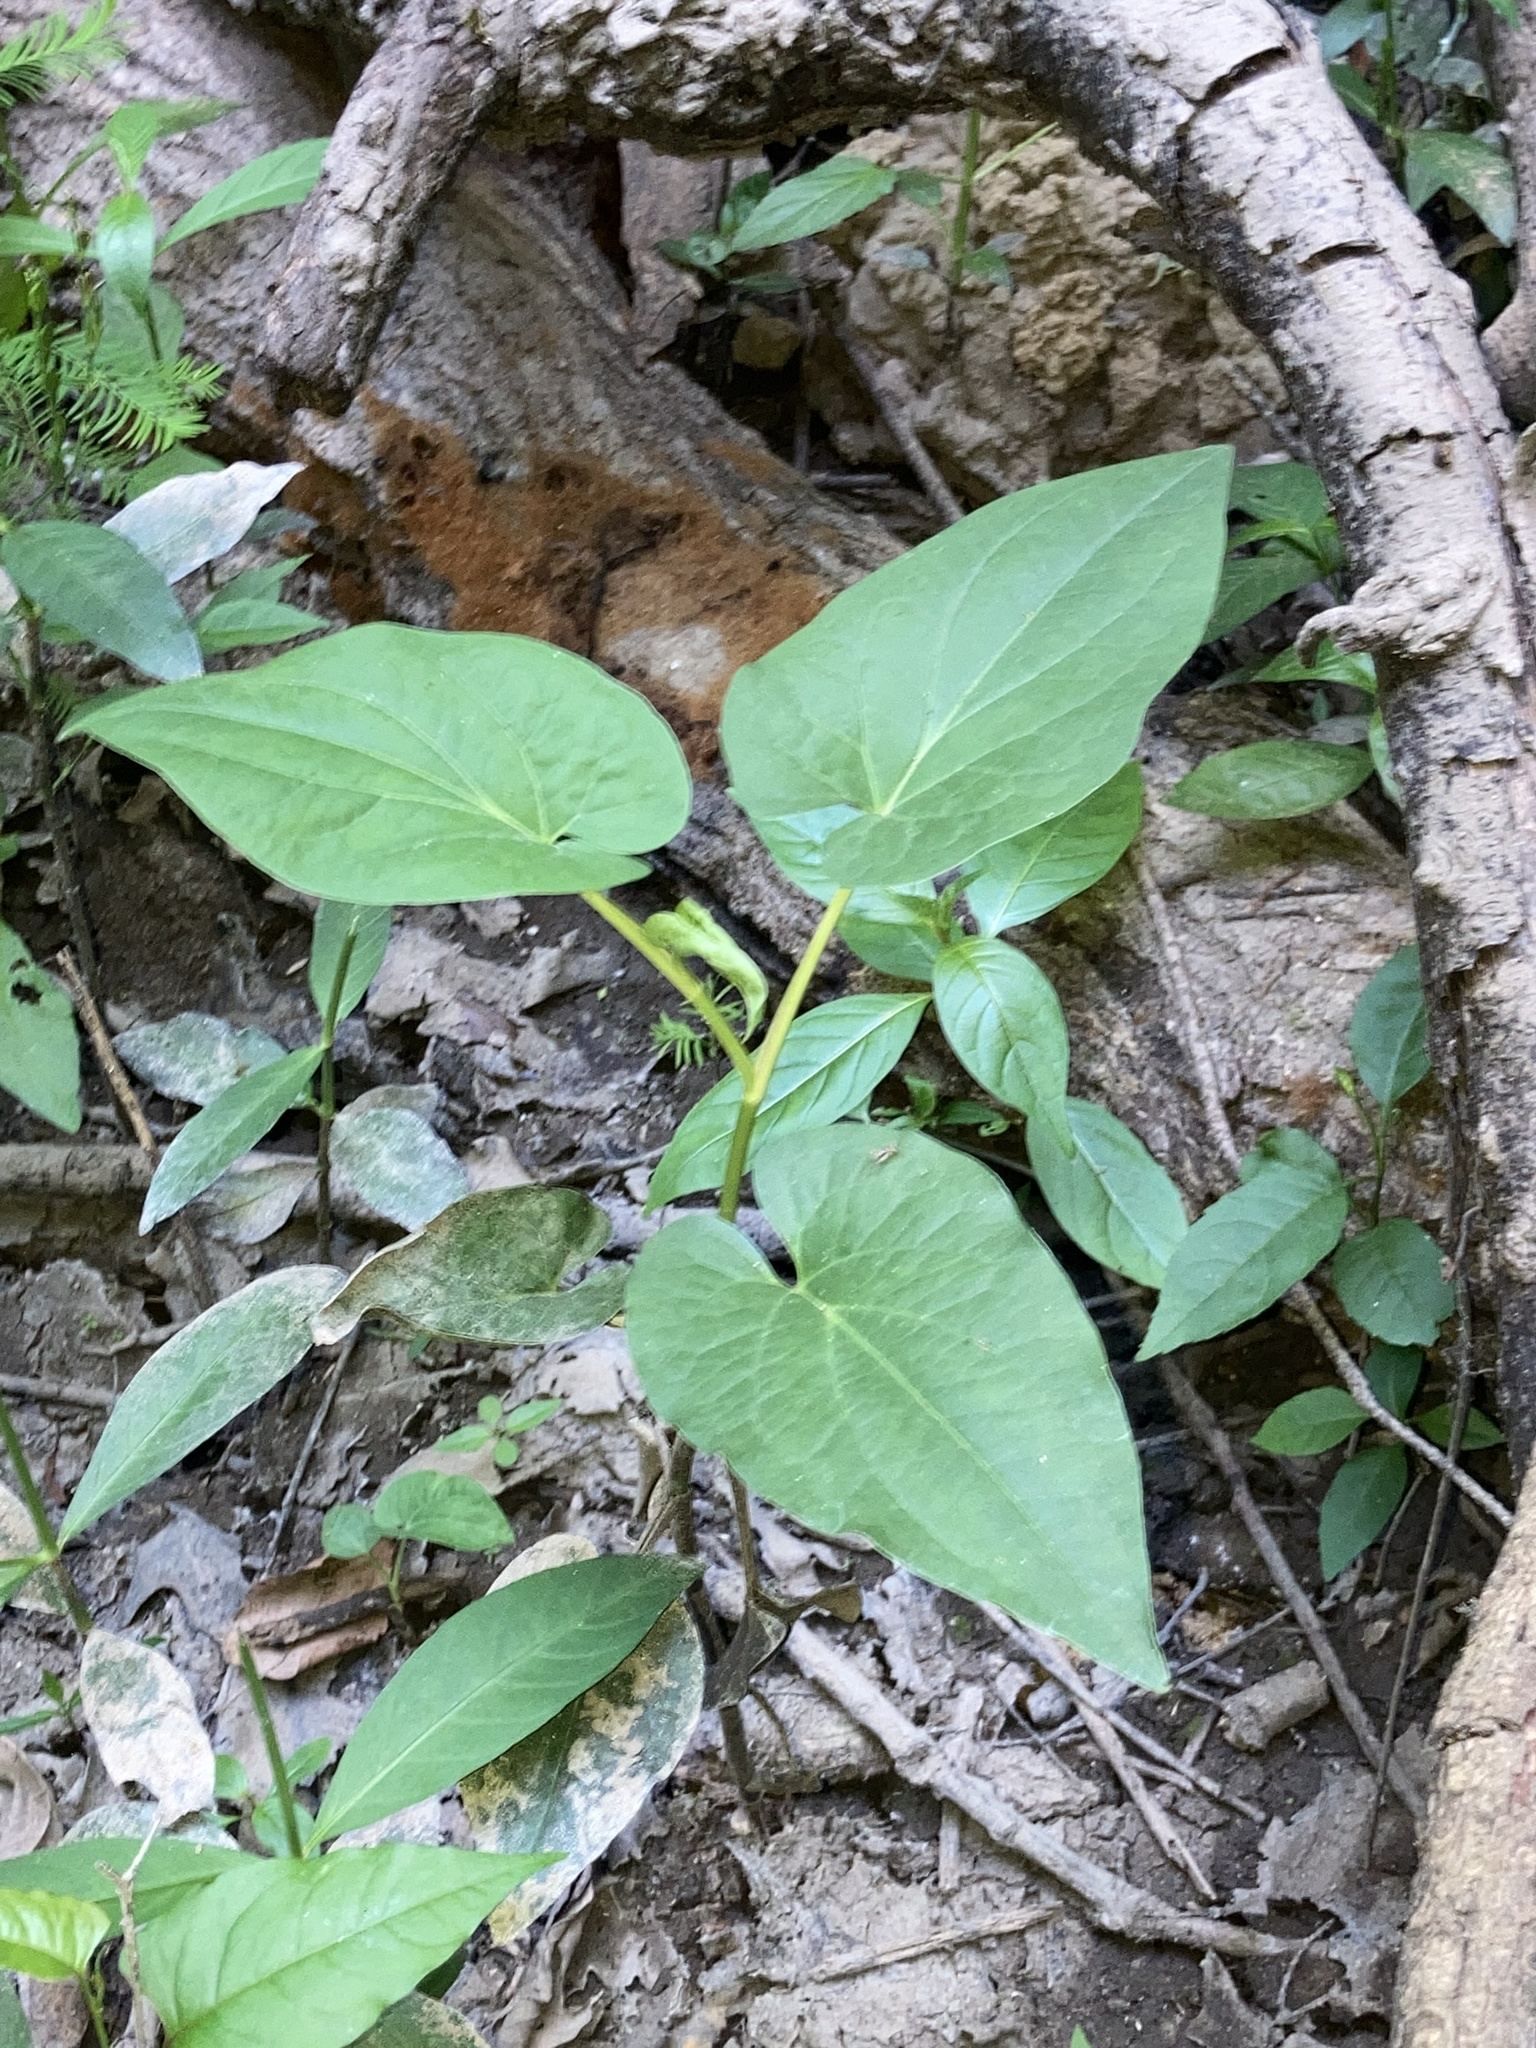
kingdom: Plantae
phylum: Tracheophyta
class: Magnoliopsida
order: Piperales
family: Saururaceae
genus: Saururus
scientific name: Saururus cernuus
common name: Lizard's-tail
